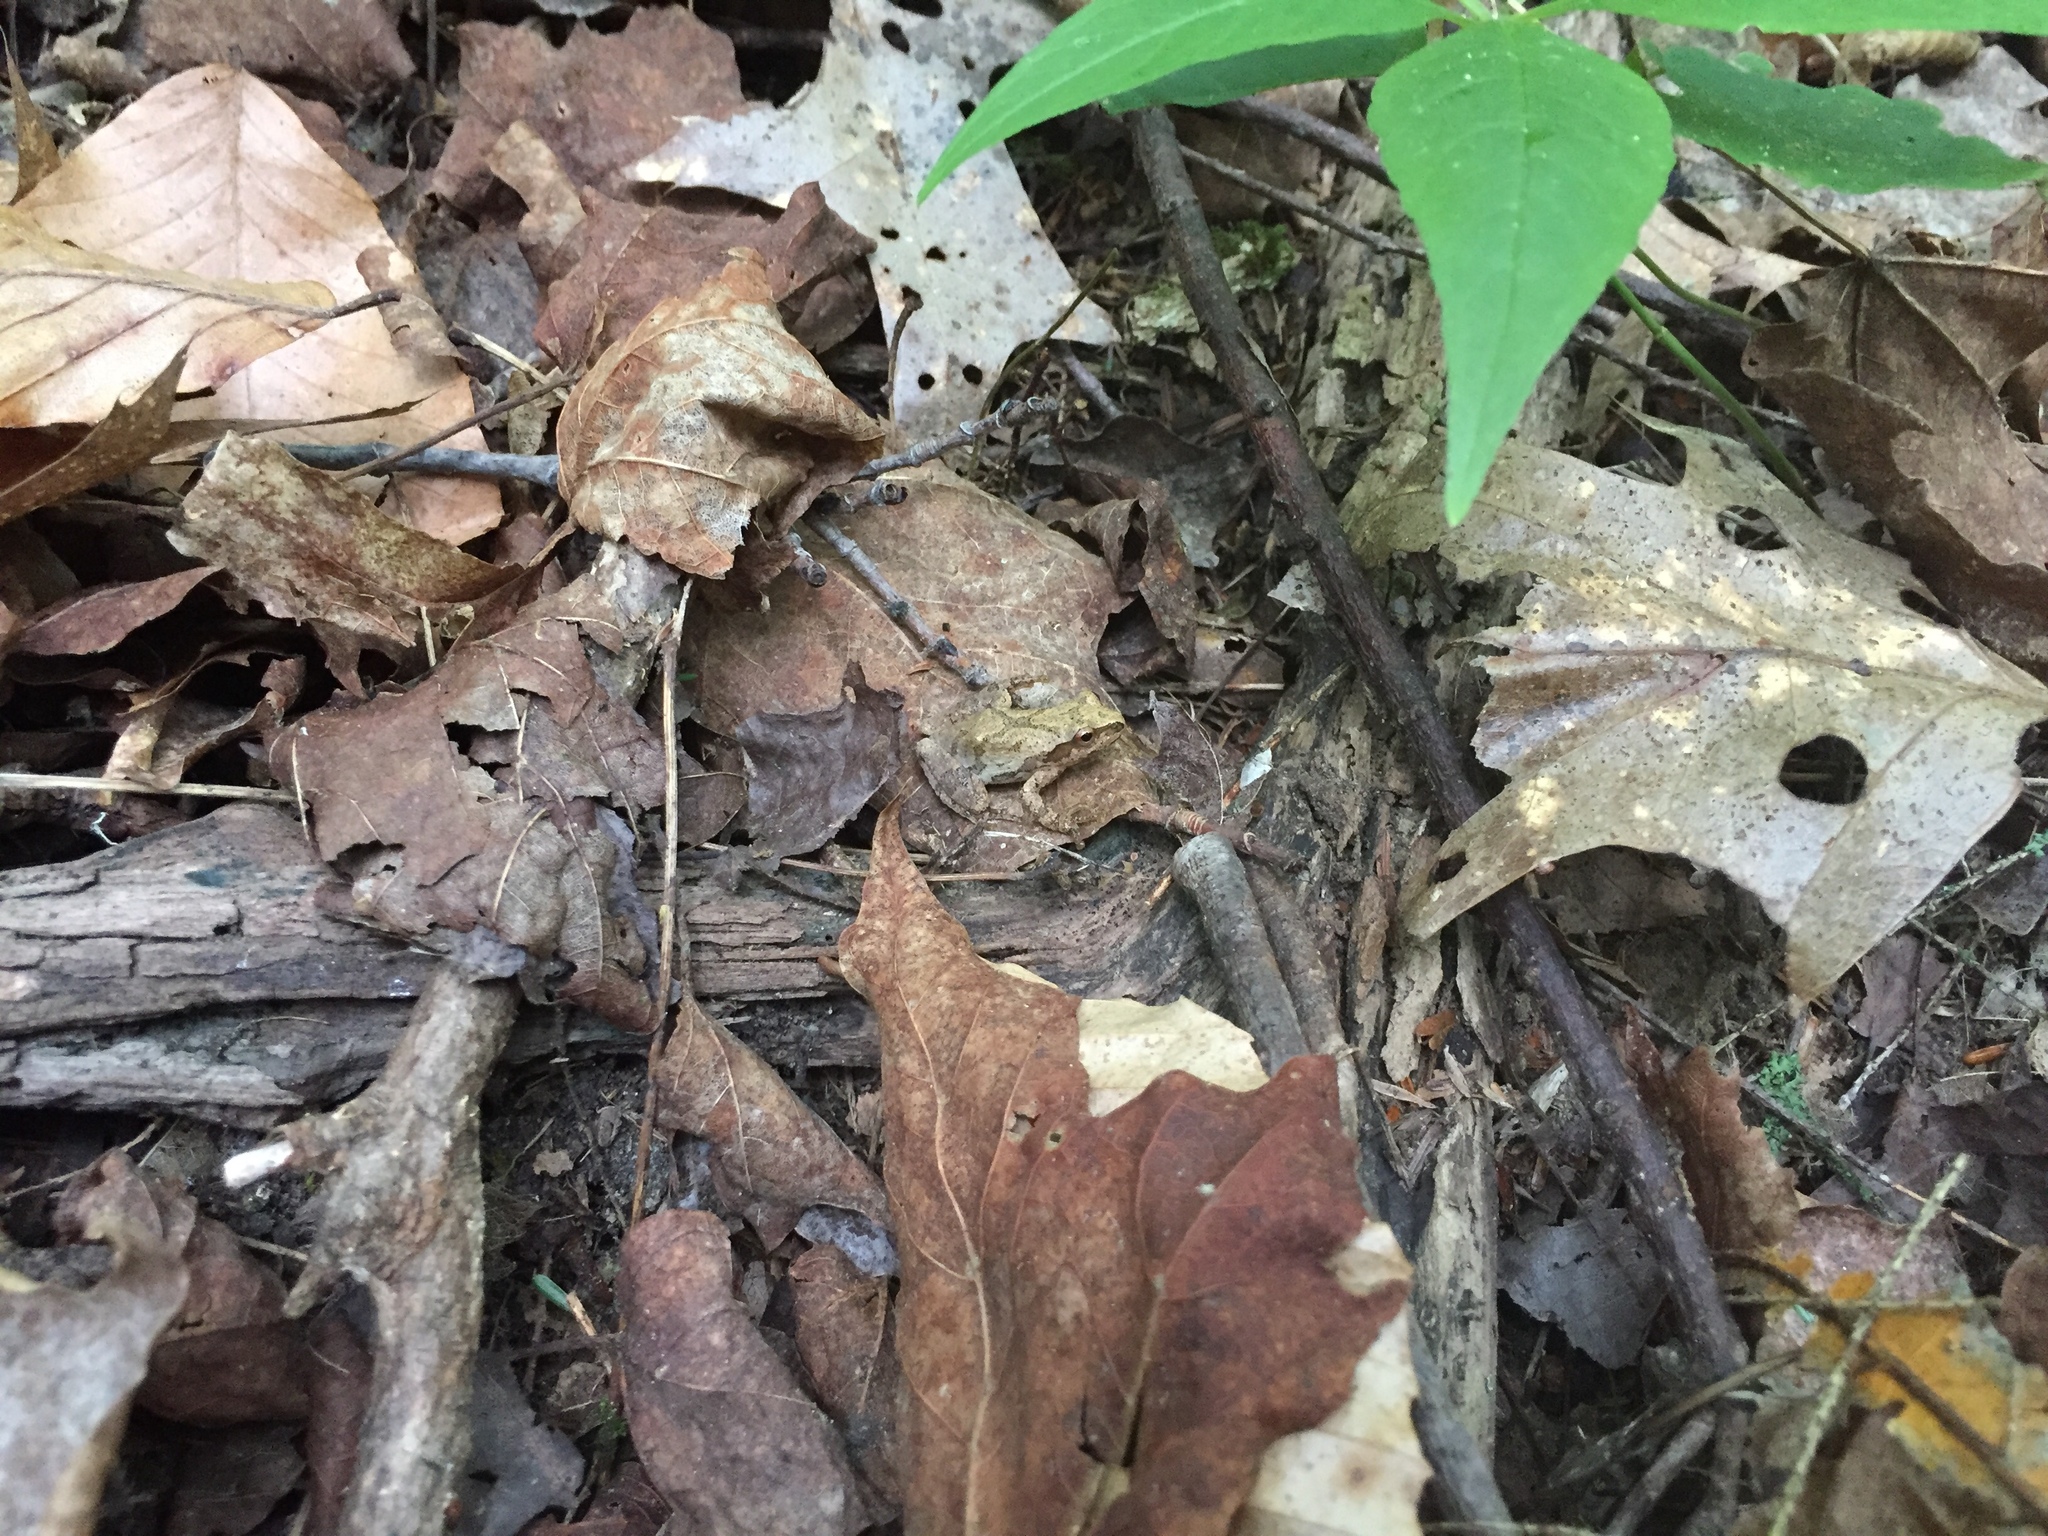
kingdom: Animalia
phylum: Chordata
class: Amphibia
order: Anura
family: Hylidae
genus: Pseudacris
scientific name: Pseudacris crucifer
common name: Spring peeper
